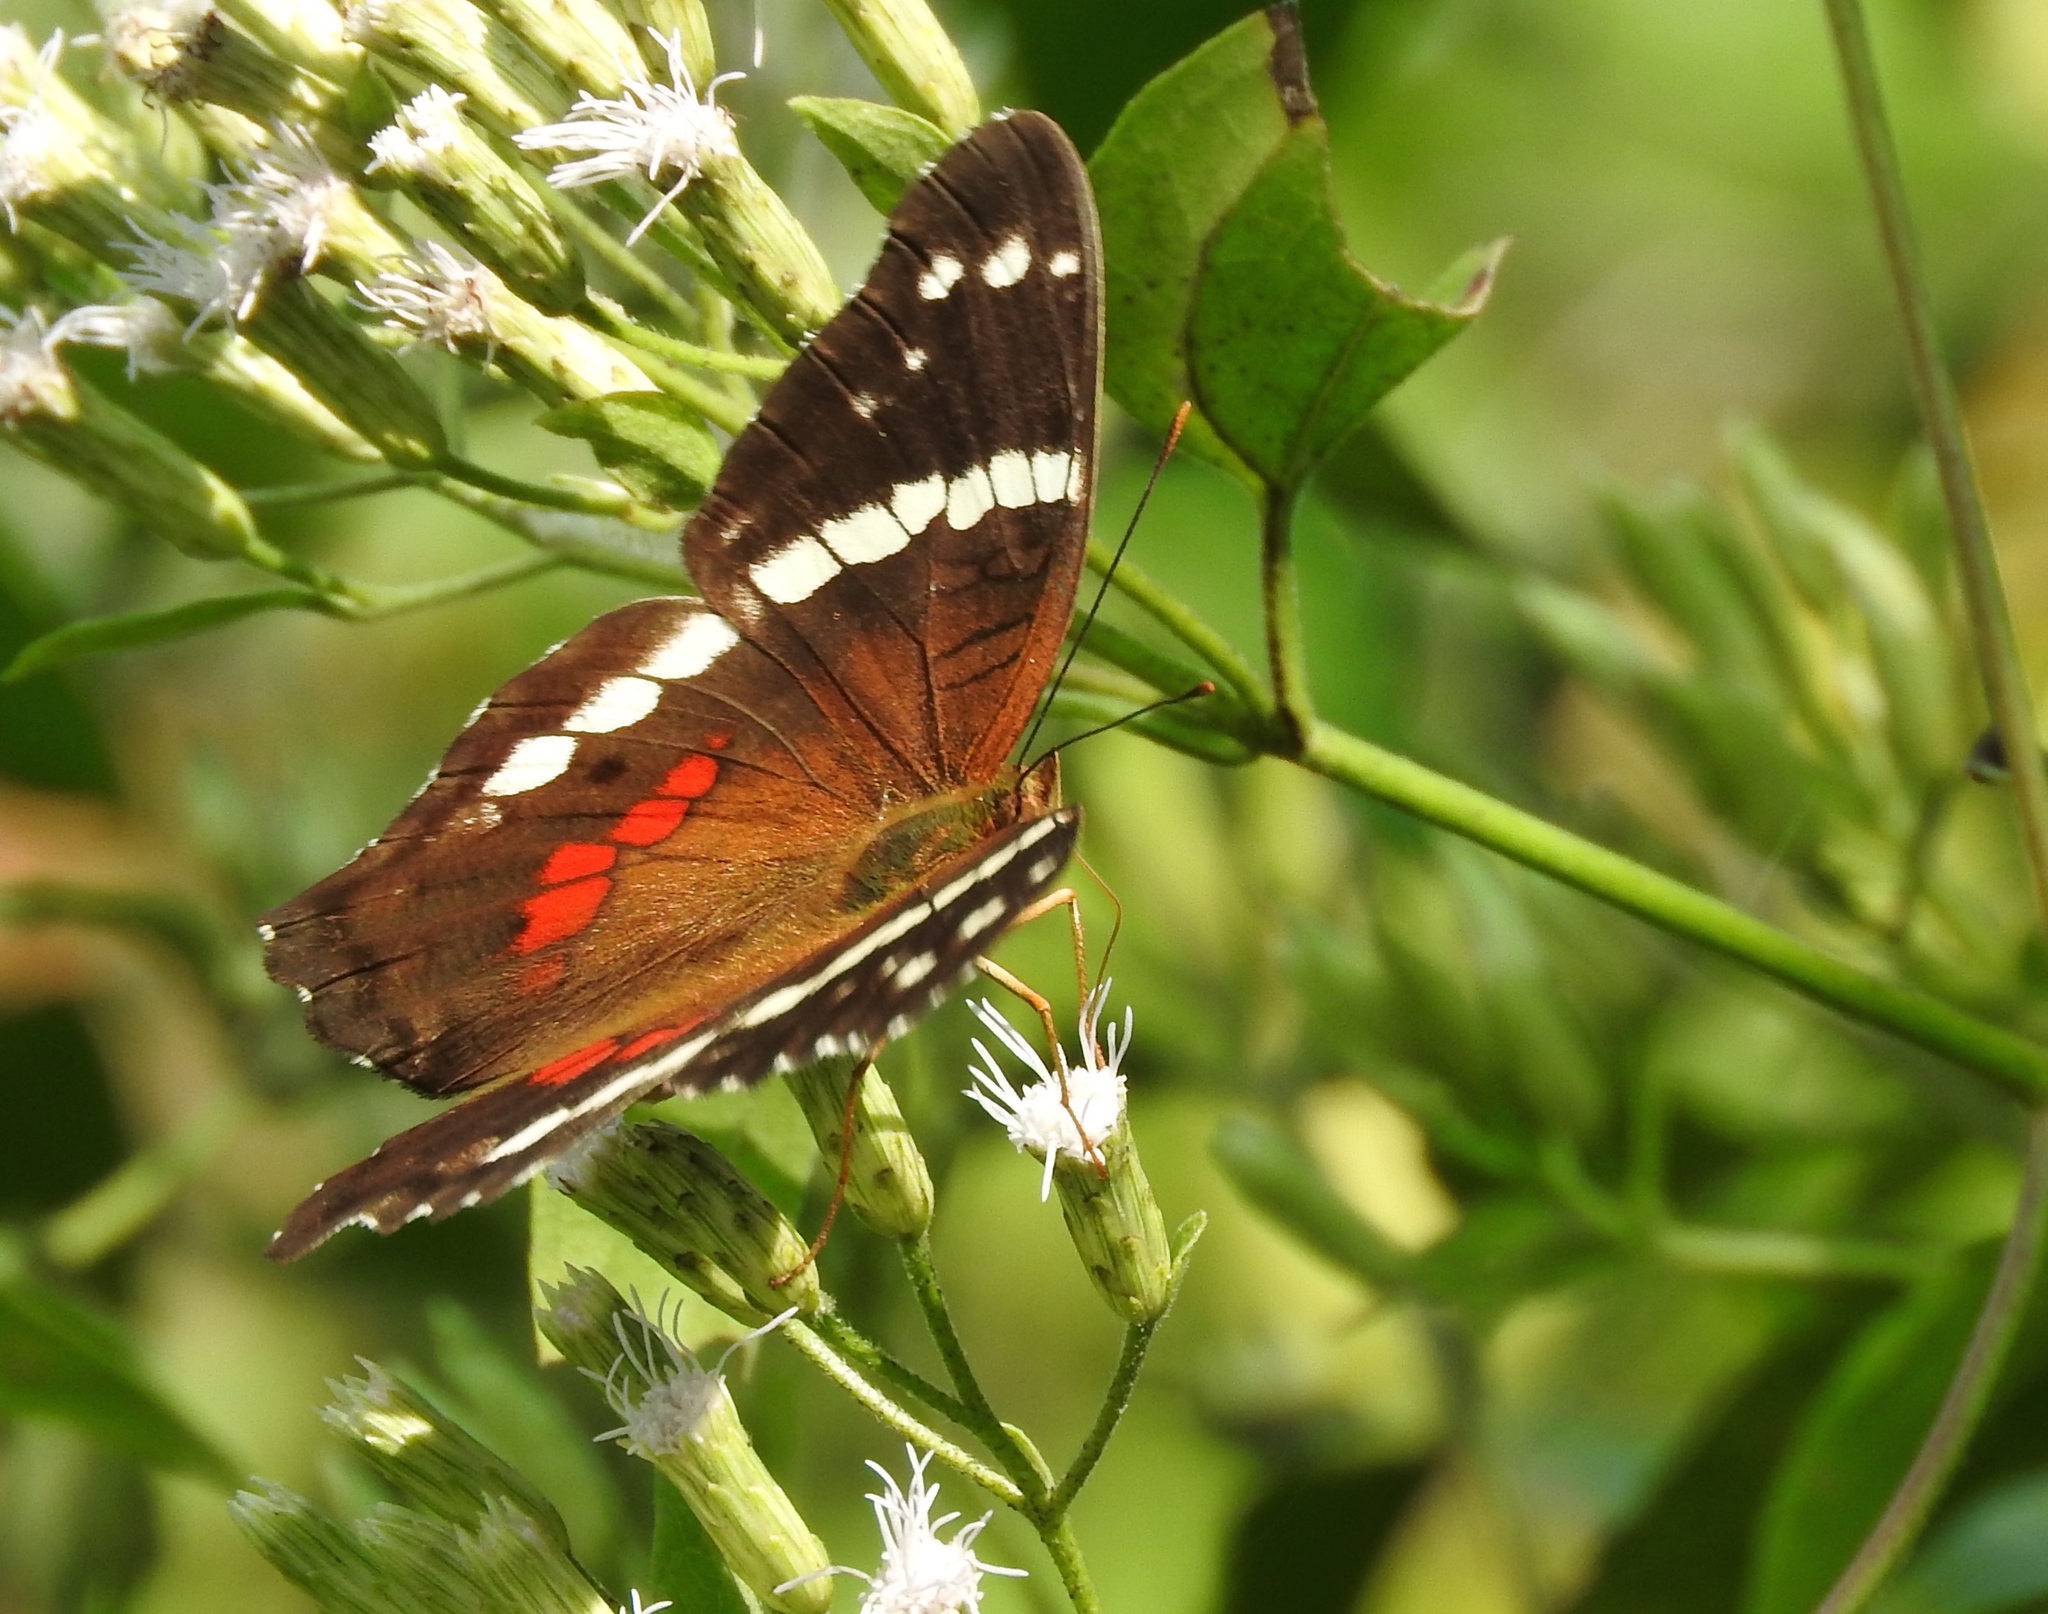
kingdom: Animalia
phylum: Arthropoda
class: Insecta
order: Lepidoptera
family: Nymphalidae
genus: Anartia
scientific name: Anartia fatima
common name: Banded peacock
